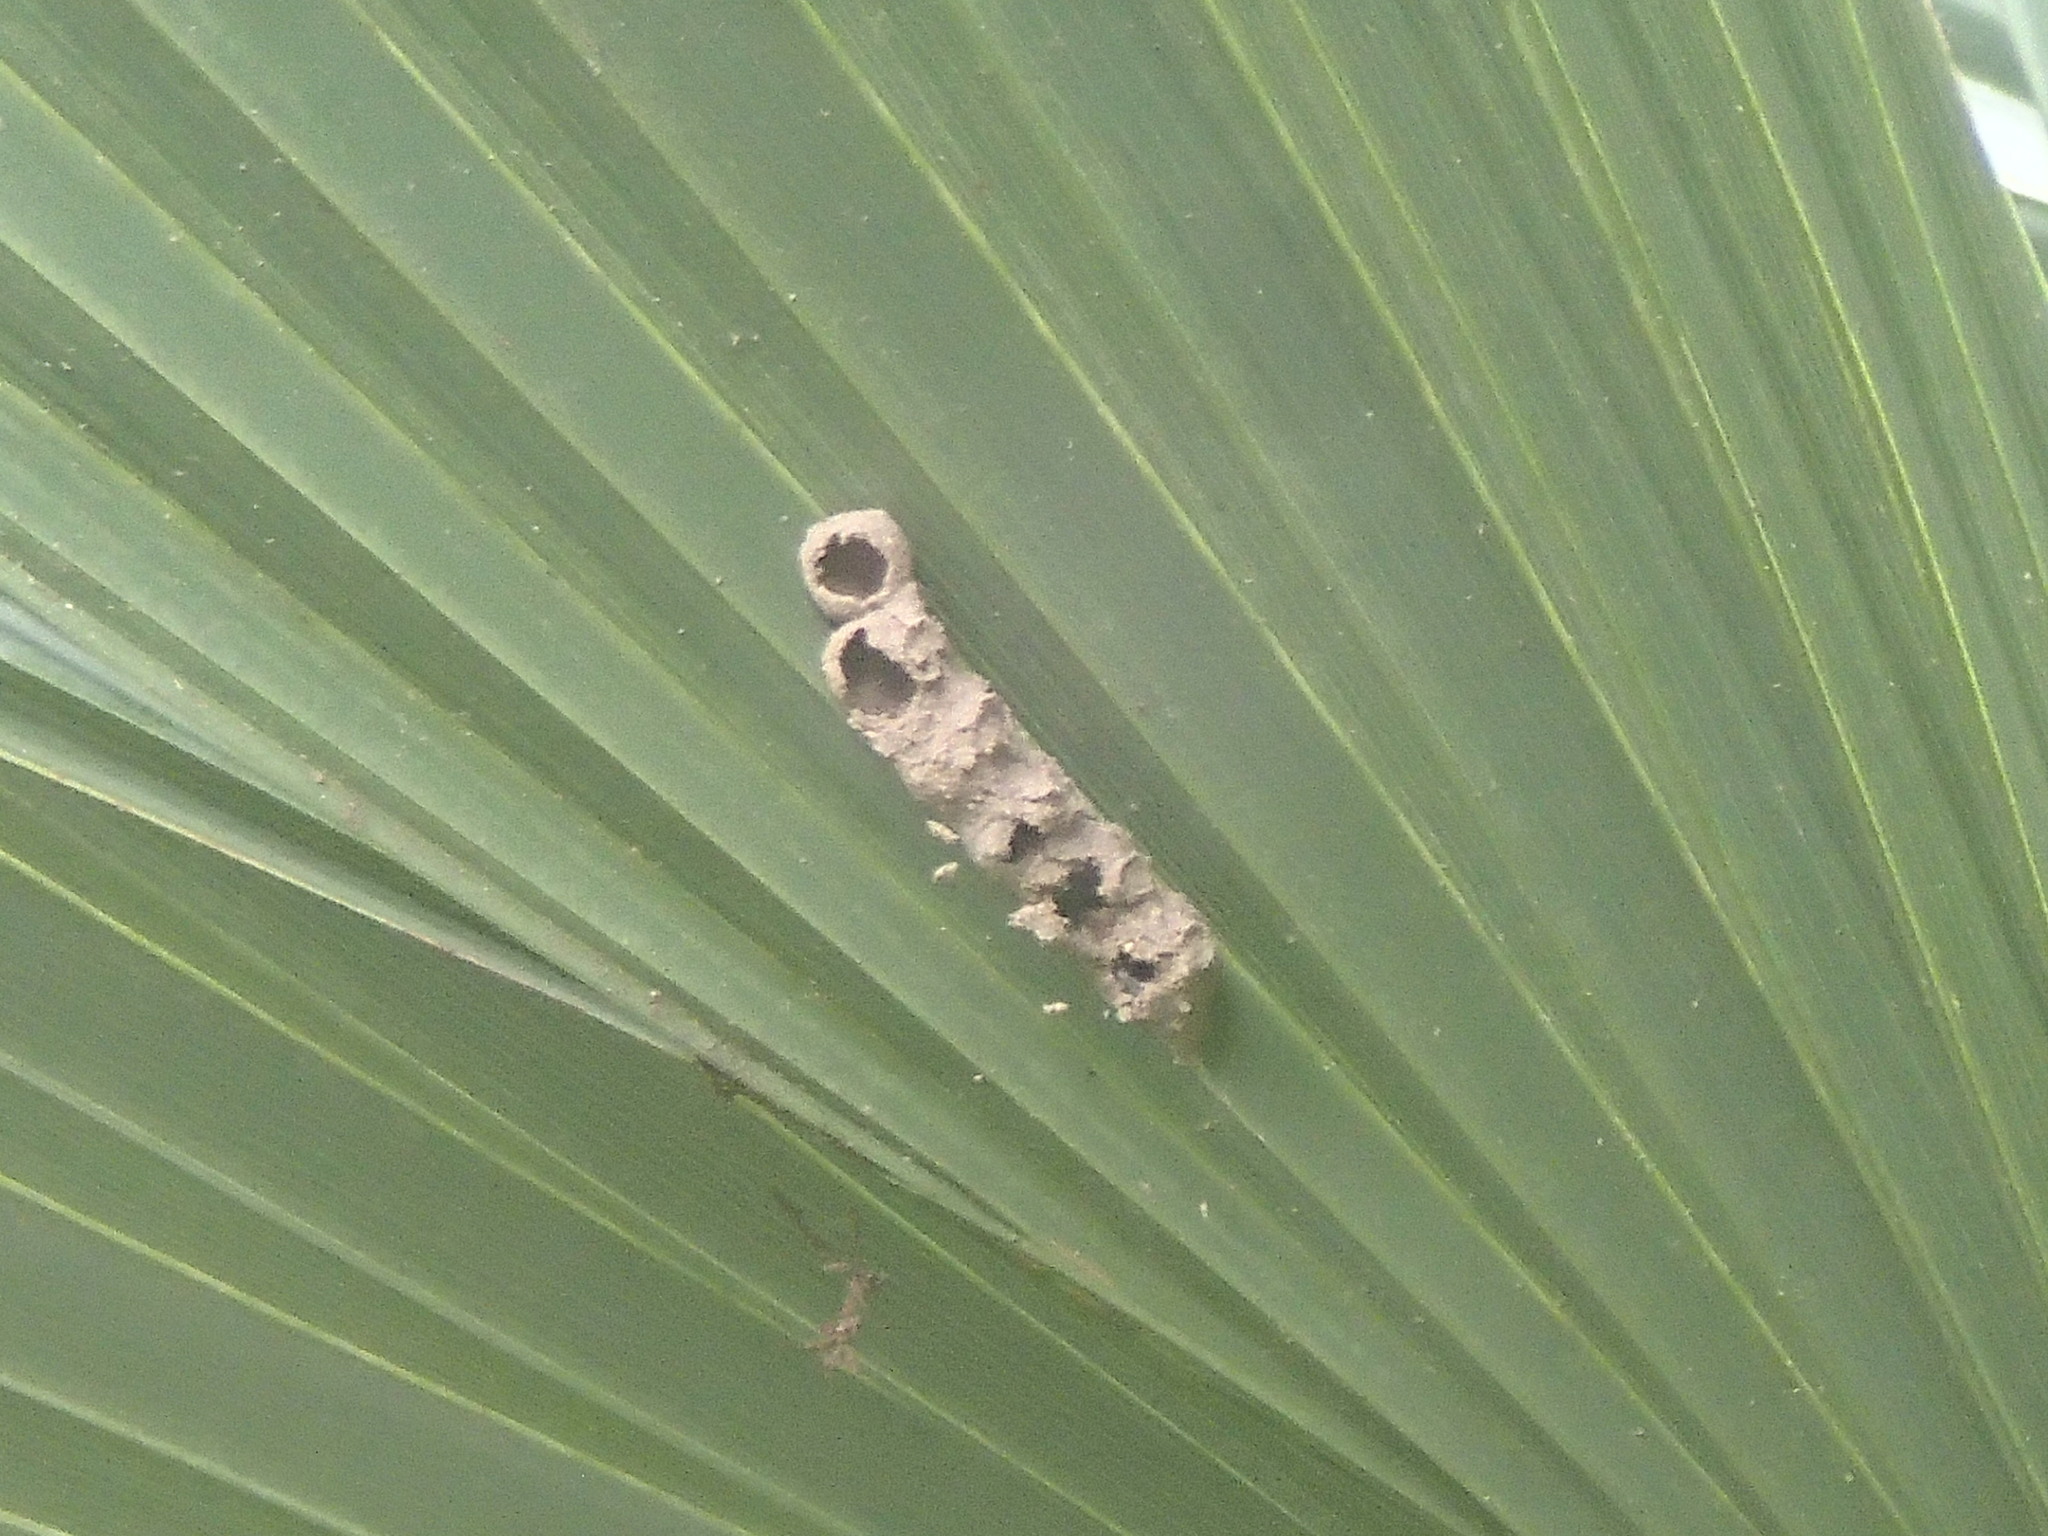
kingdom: Animalia
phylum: Arthropoda
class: Insecta
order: Hymenoptera
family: Vespidae
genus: Eumenes
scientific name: Eumenes
